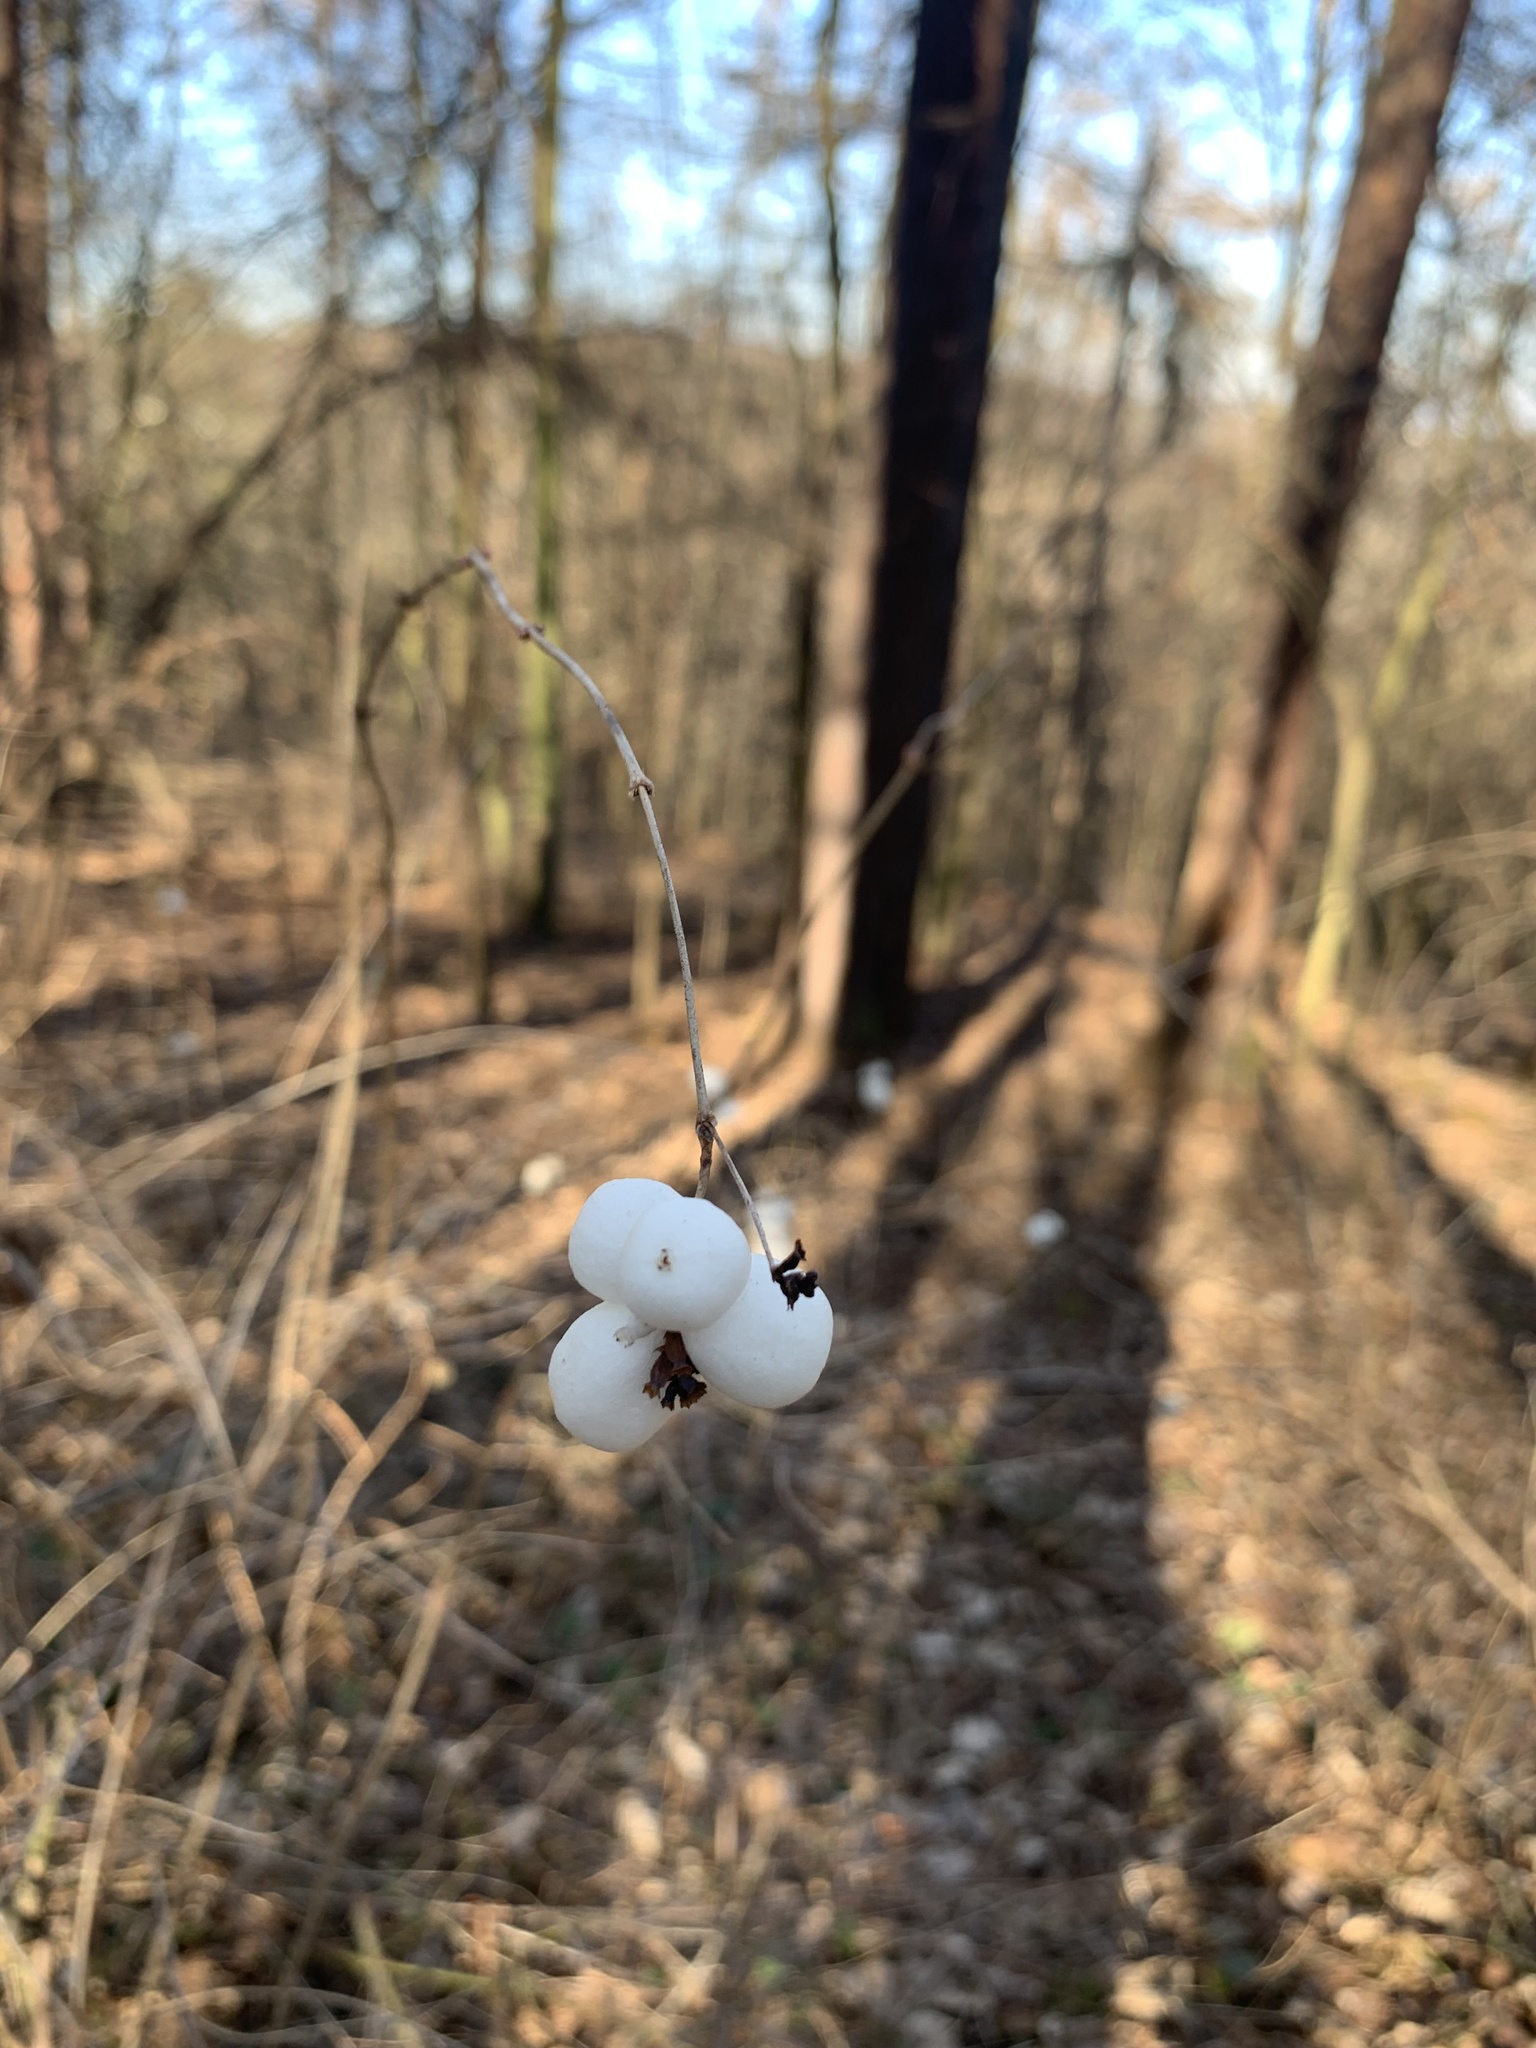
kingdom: Plantae
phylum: Tracheophyta
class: Magnoliopsida
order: Dipsacales
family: Caprifoliaceae
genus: Symphoricarpos
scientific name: Symphoricarpos albus
